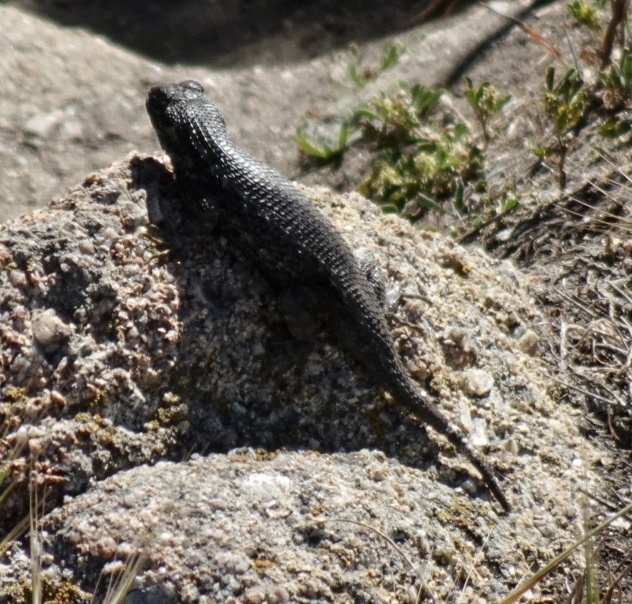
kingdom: Animalia
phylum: Chordata
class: Squamata
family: Phrynosomatidae
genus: Sceloporus
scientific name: Sceloporus occidentalis
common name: Western fence lizard
